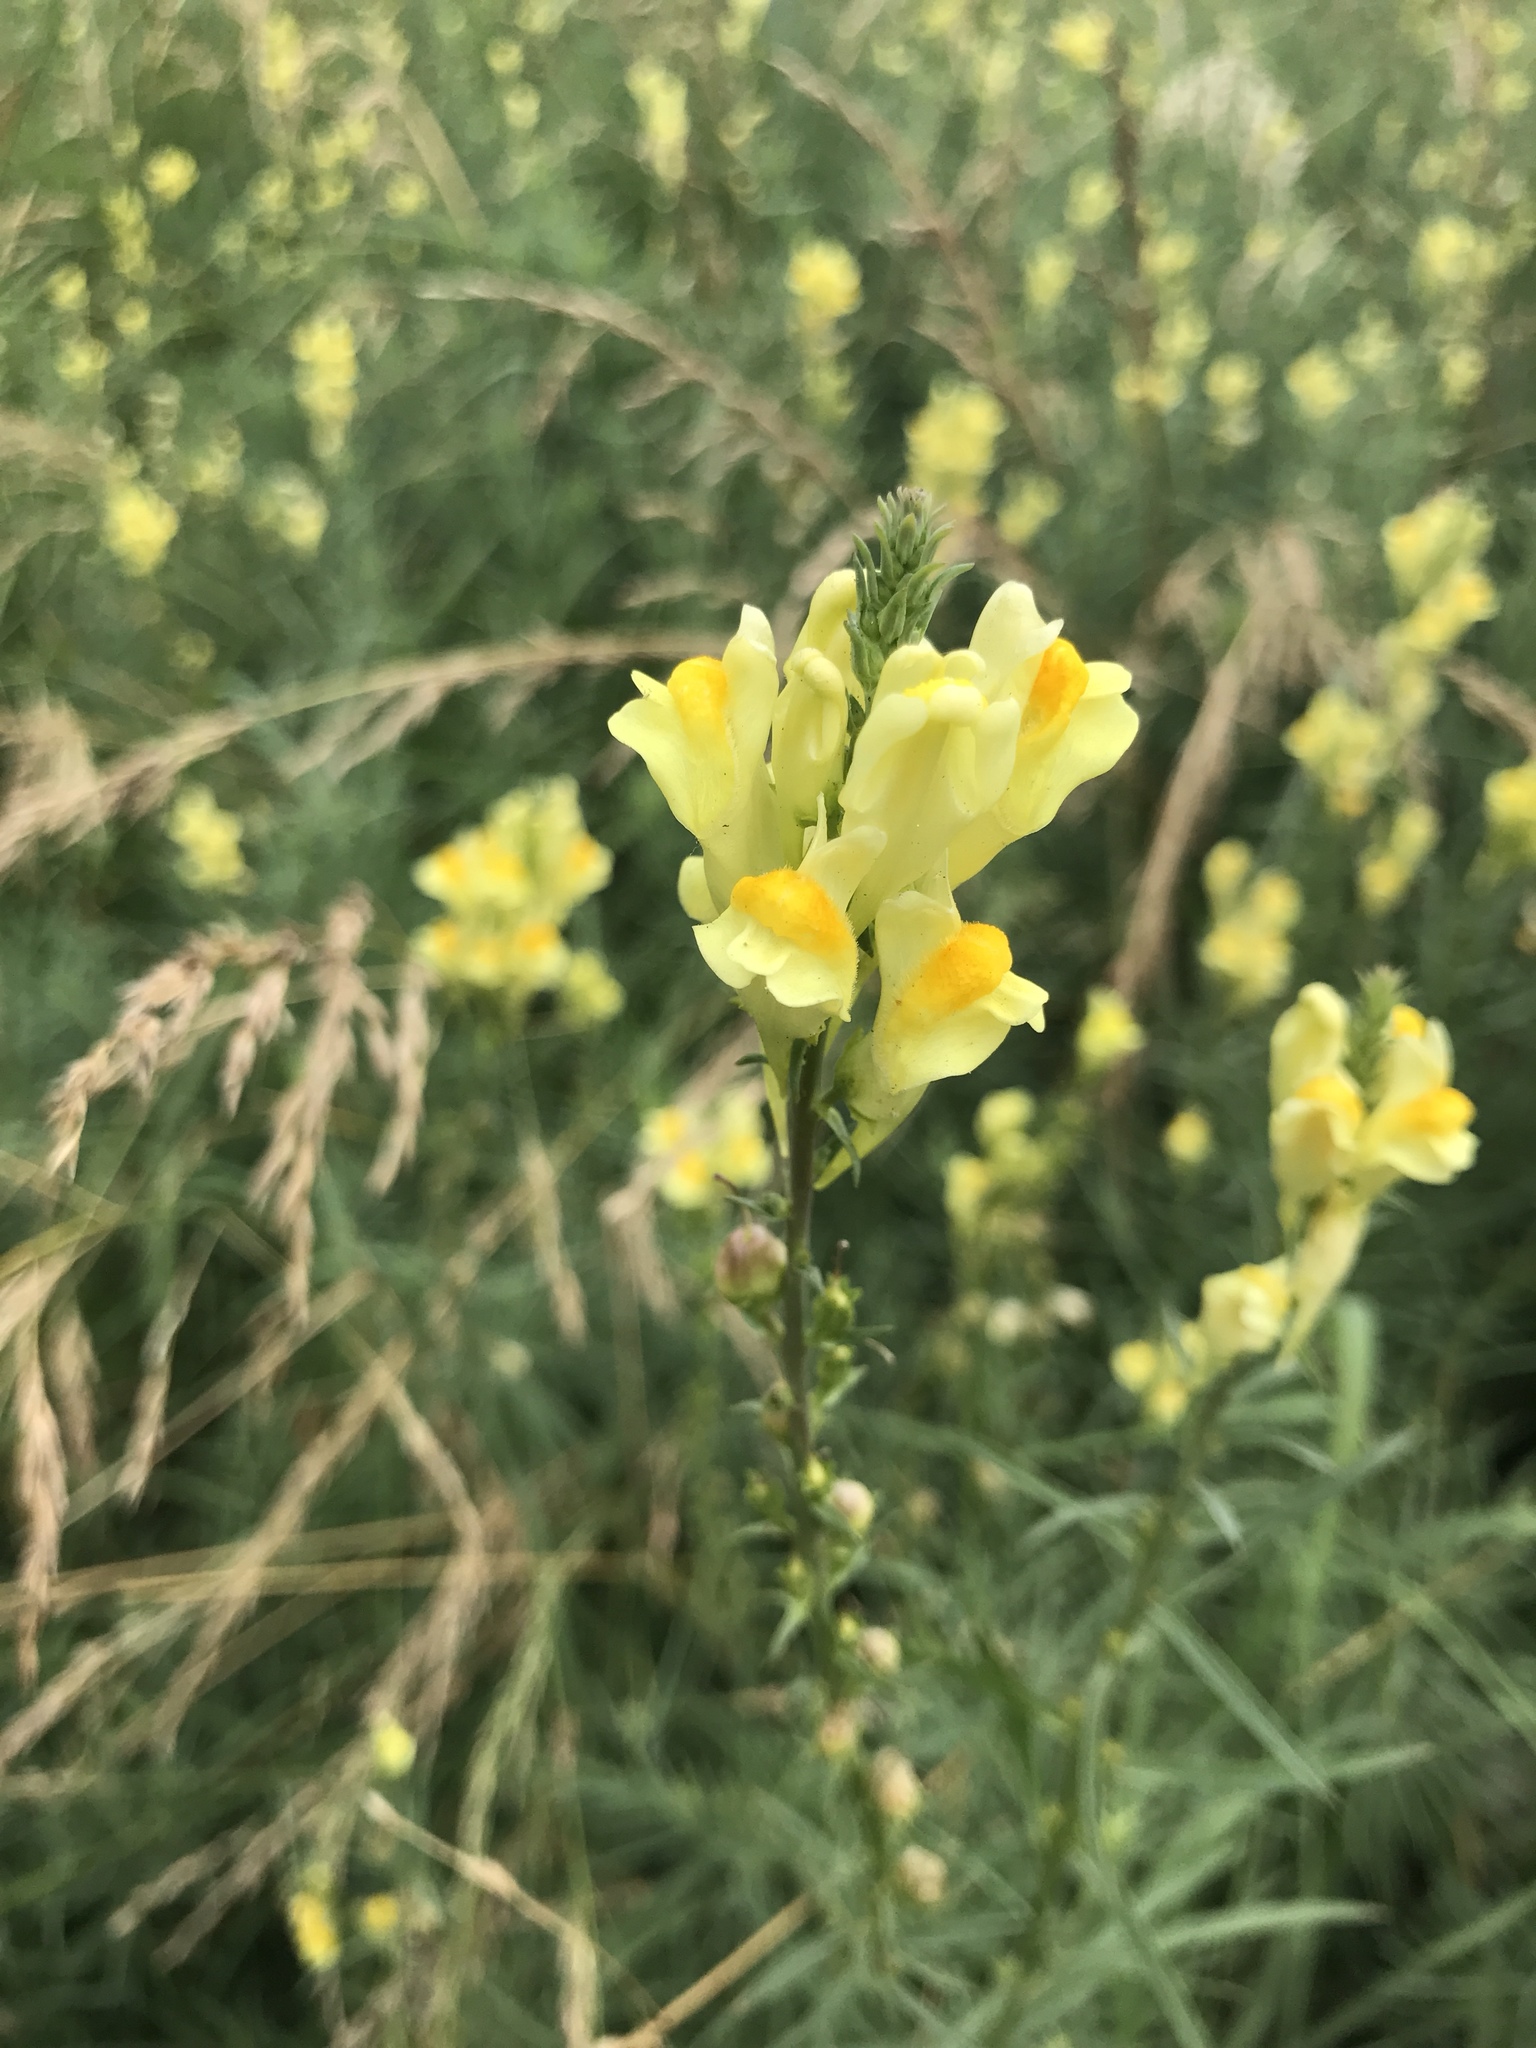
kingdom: Plantae
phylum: Tracheophyta
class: Magnoliopsida
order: Lamiales
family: Plantaginaceae
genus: Linaria
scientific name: Linaria vulgaris
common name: Butter and eggs
